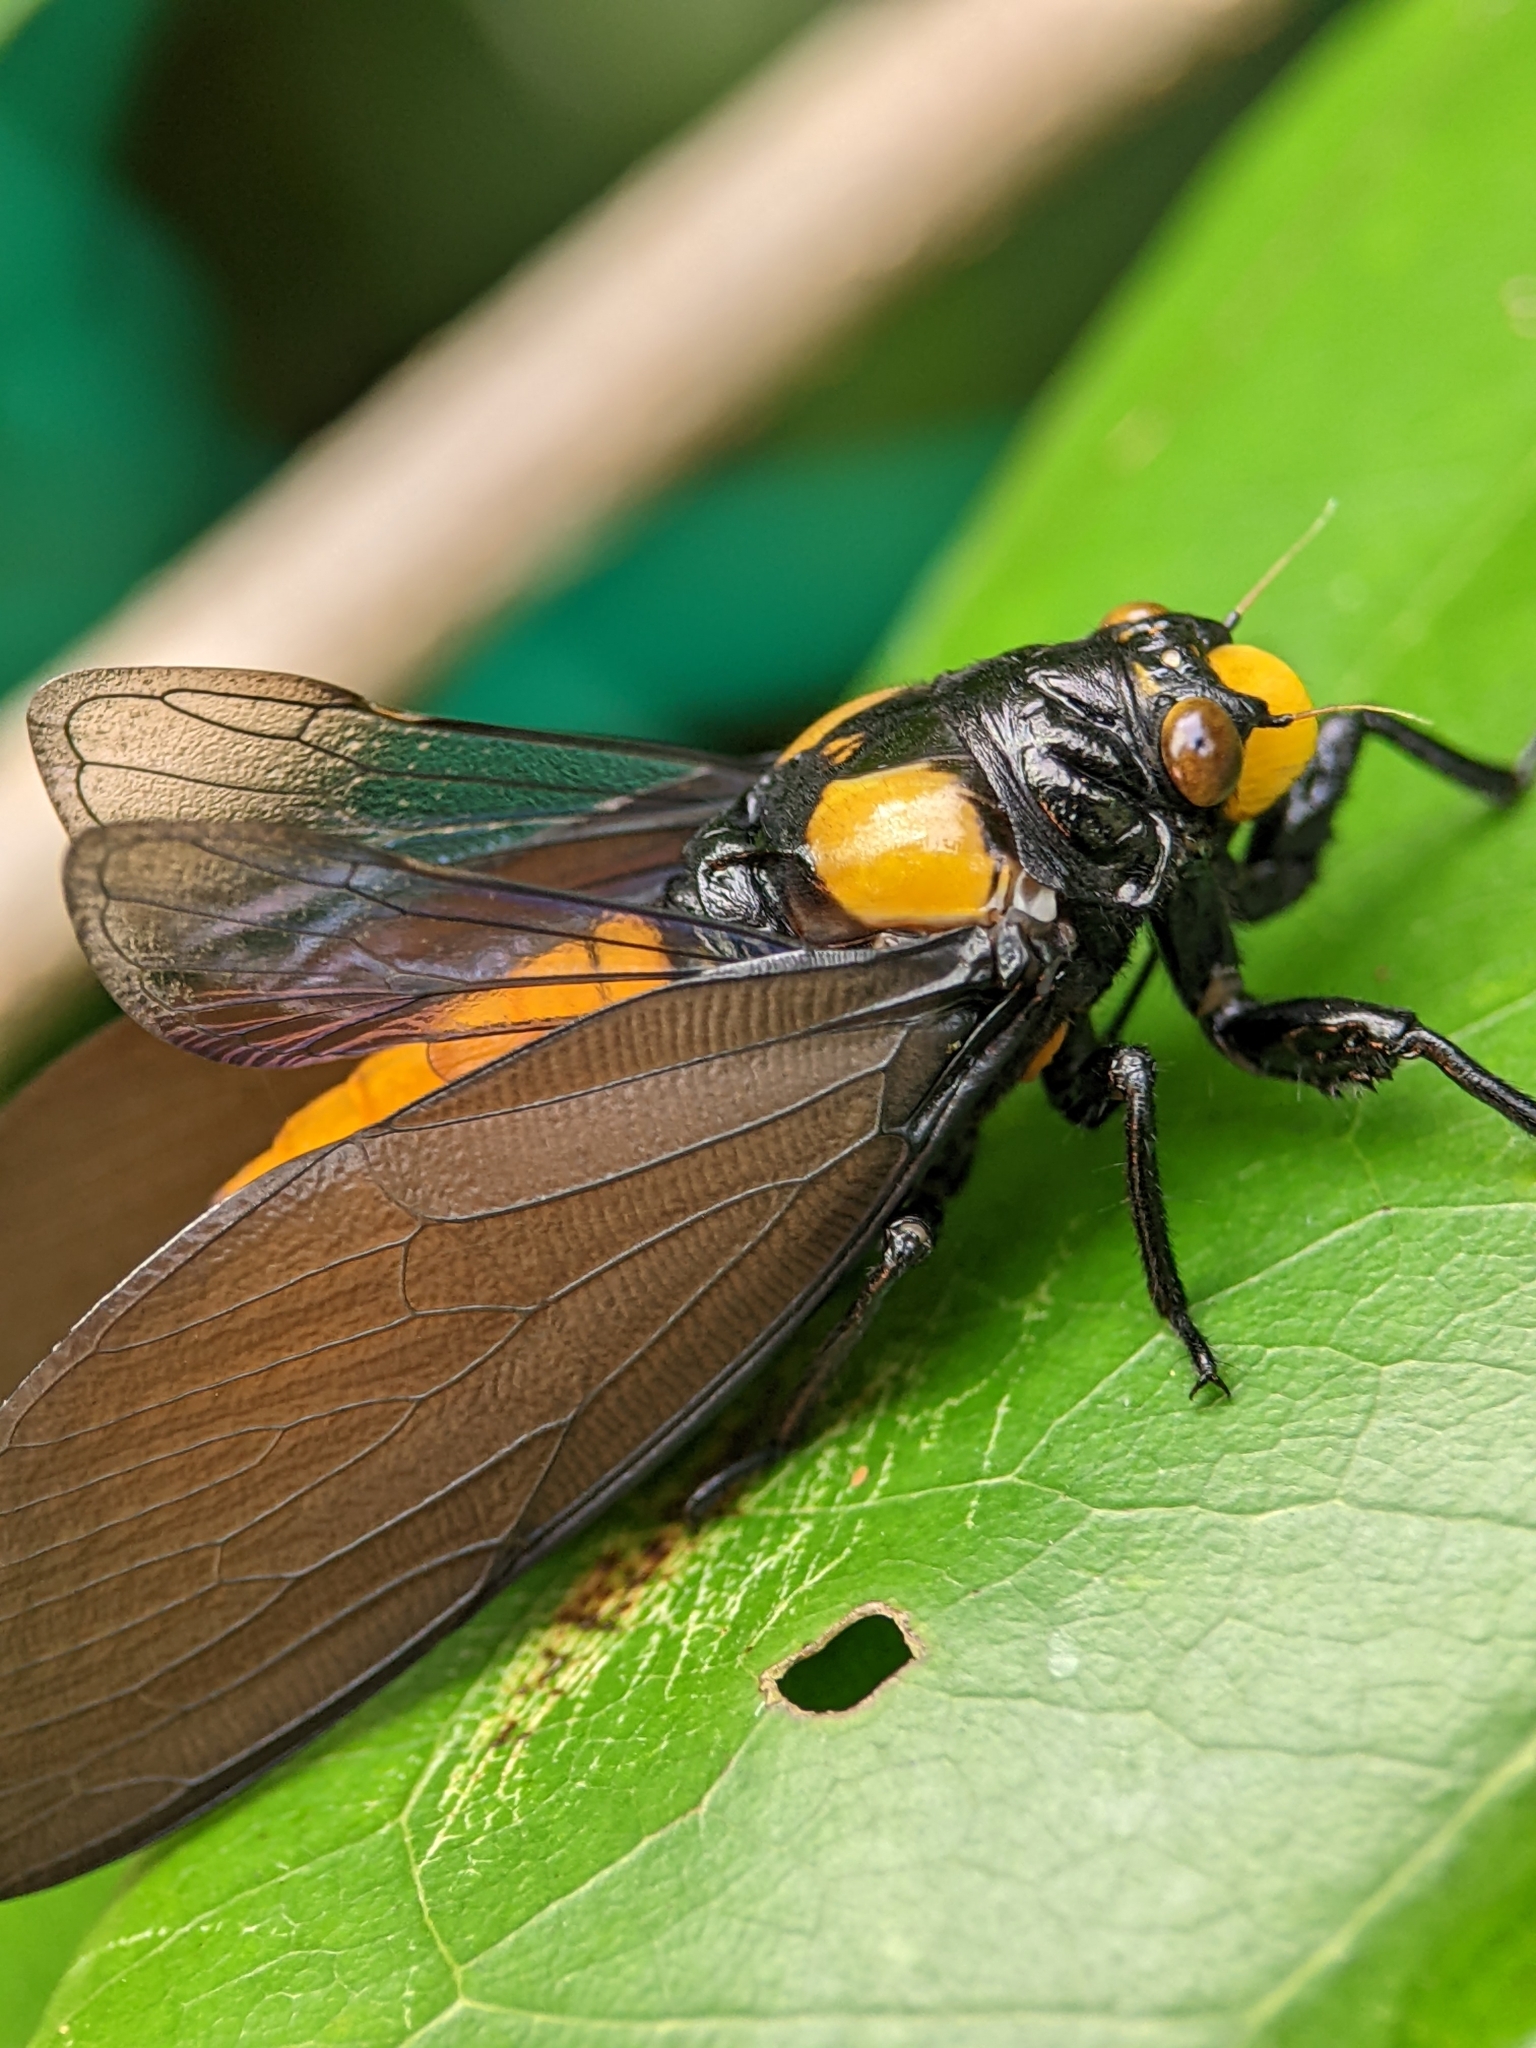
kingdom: Animalia
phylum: Arthropoda
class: Insecta
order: Hemiptera
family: Cicadidae
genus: Huechys
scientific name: Huechys fusca
